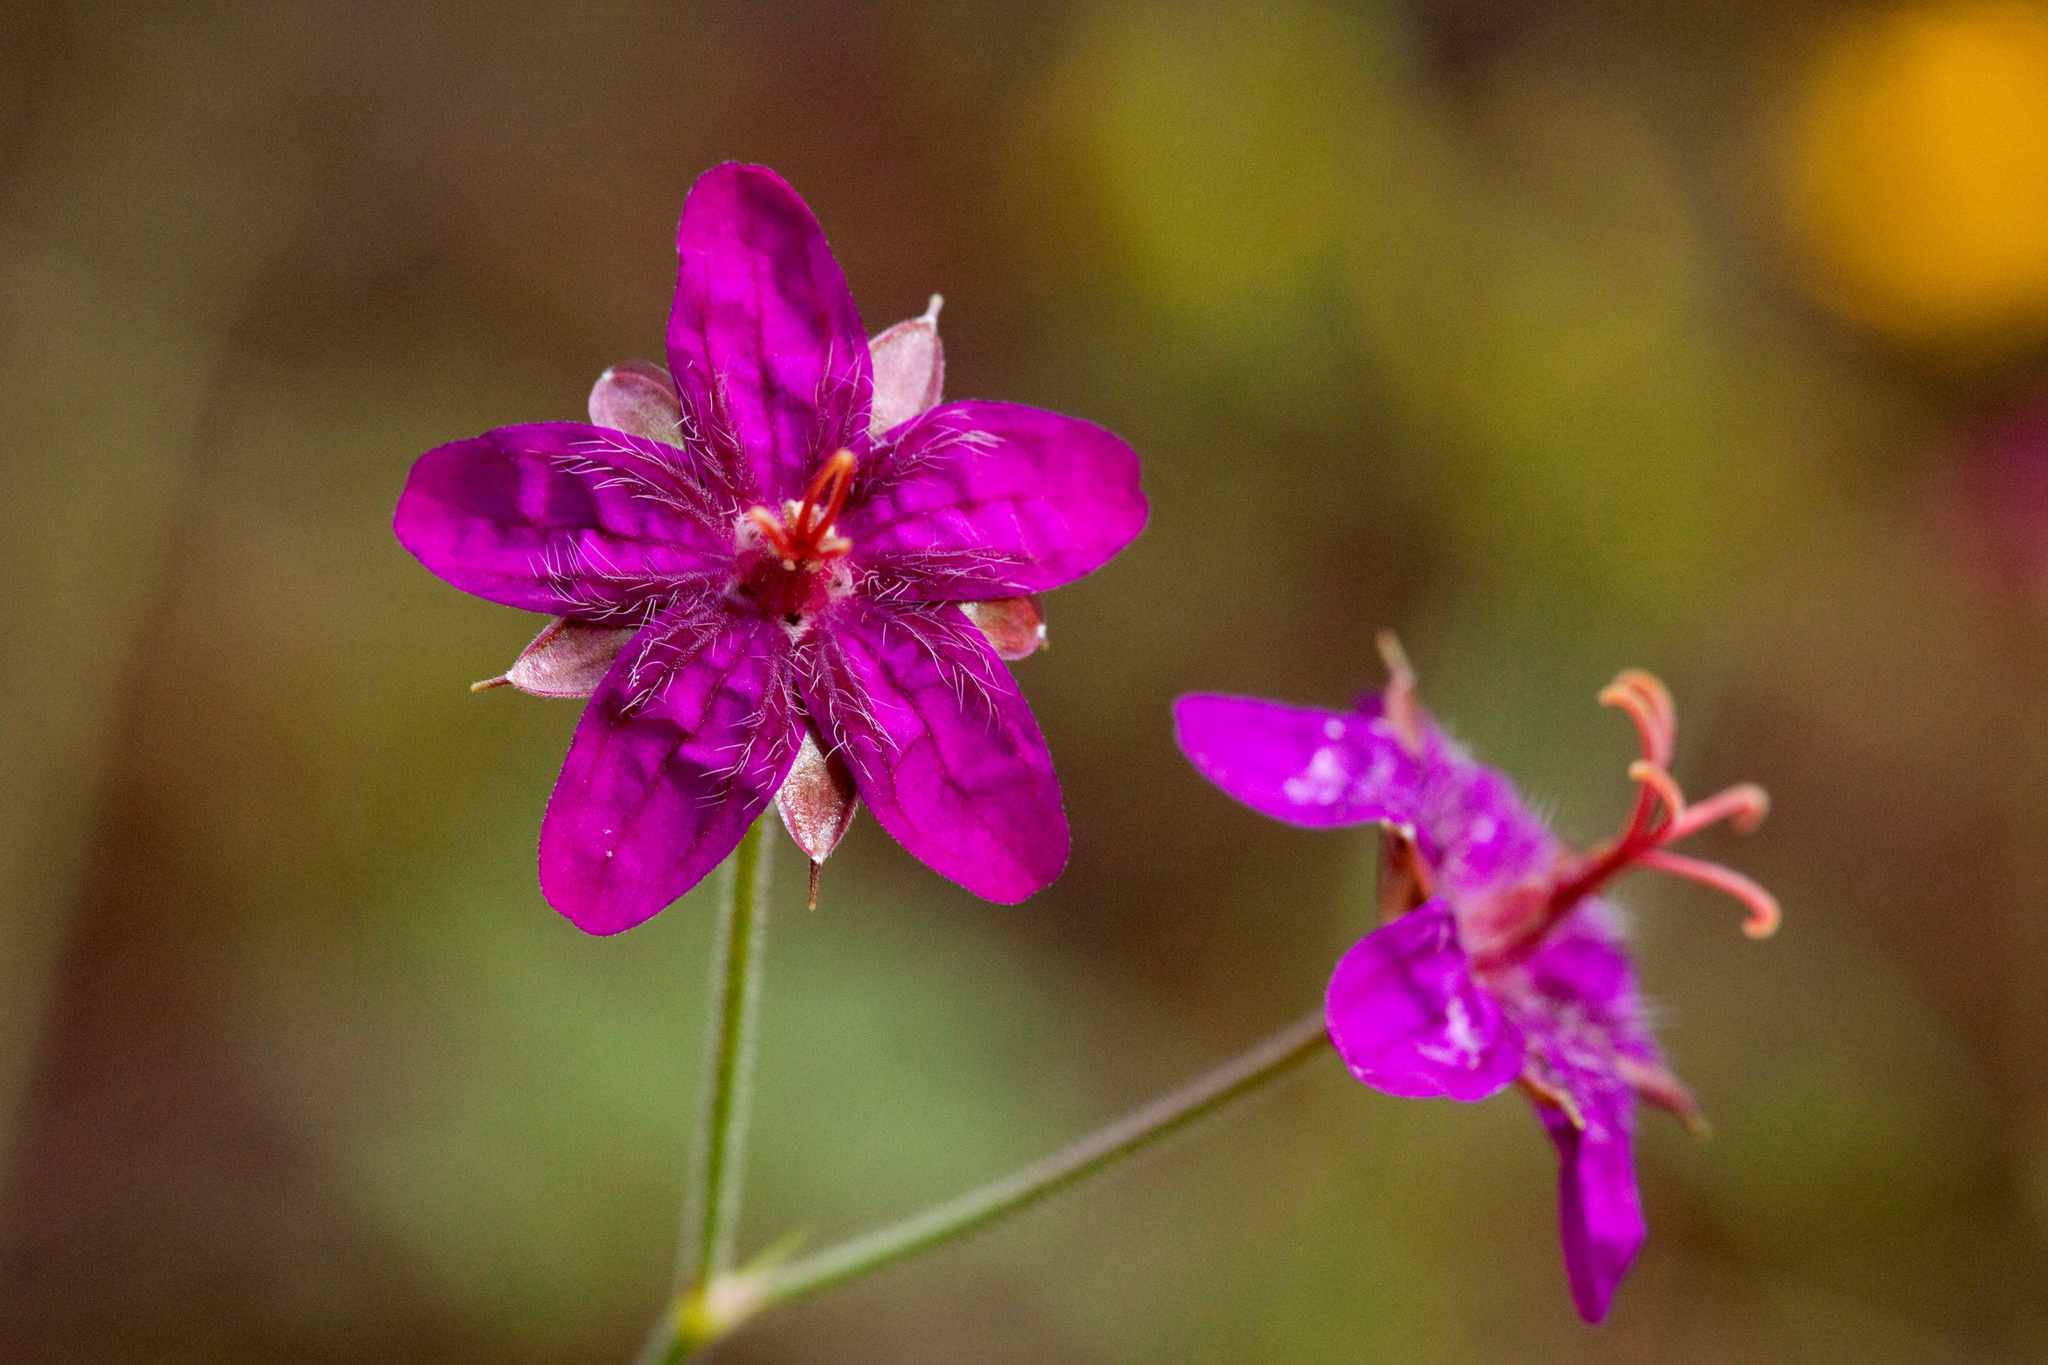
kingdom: Plantae
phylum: Tracheophyta
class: Magnoliopsida
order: Geraniales
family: Geraniaceae
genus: Geranium
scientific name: Geranium caespitosum
